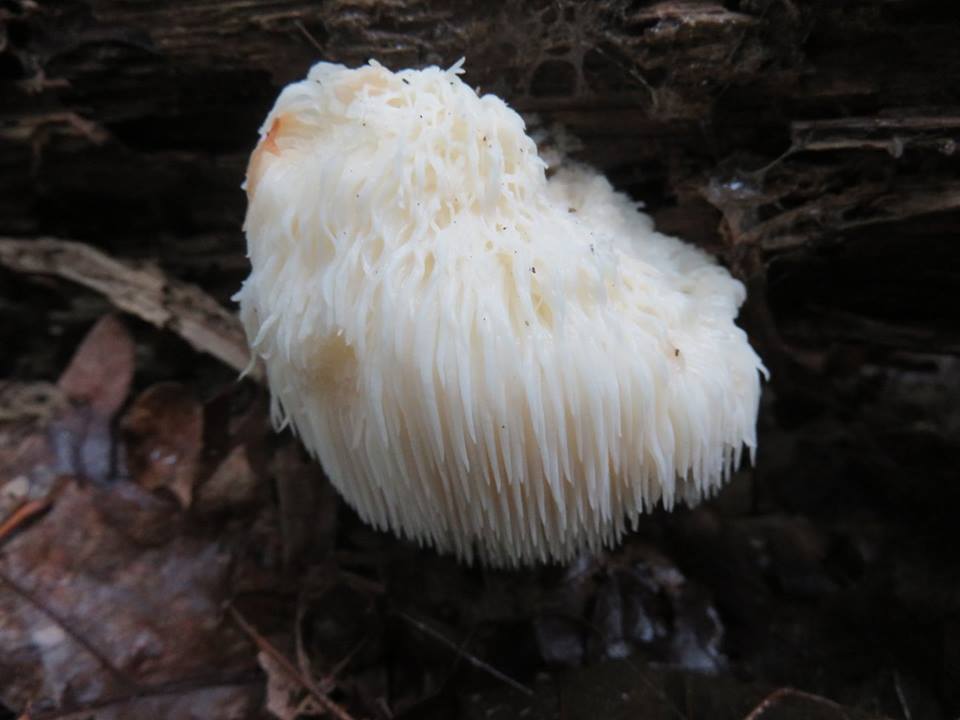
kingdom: Fungi
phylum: Basidiomycota
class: Agaricomycetes
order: Russulales
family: Hericiaceae
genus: Hericium
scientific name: Hericium erinaceus
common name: Bearded tooth
